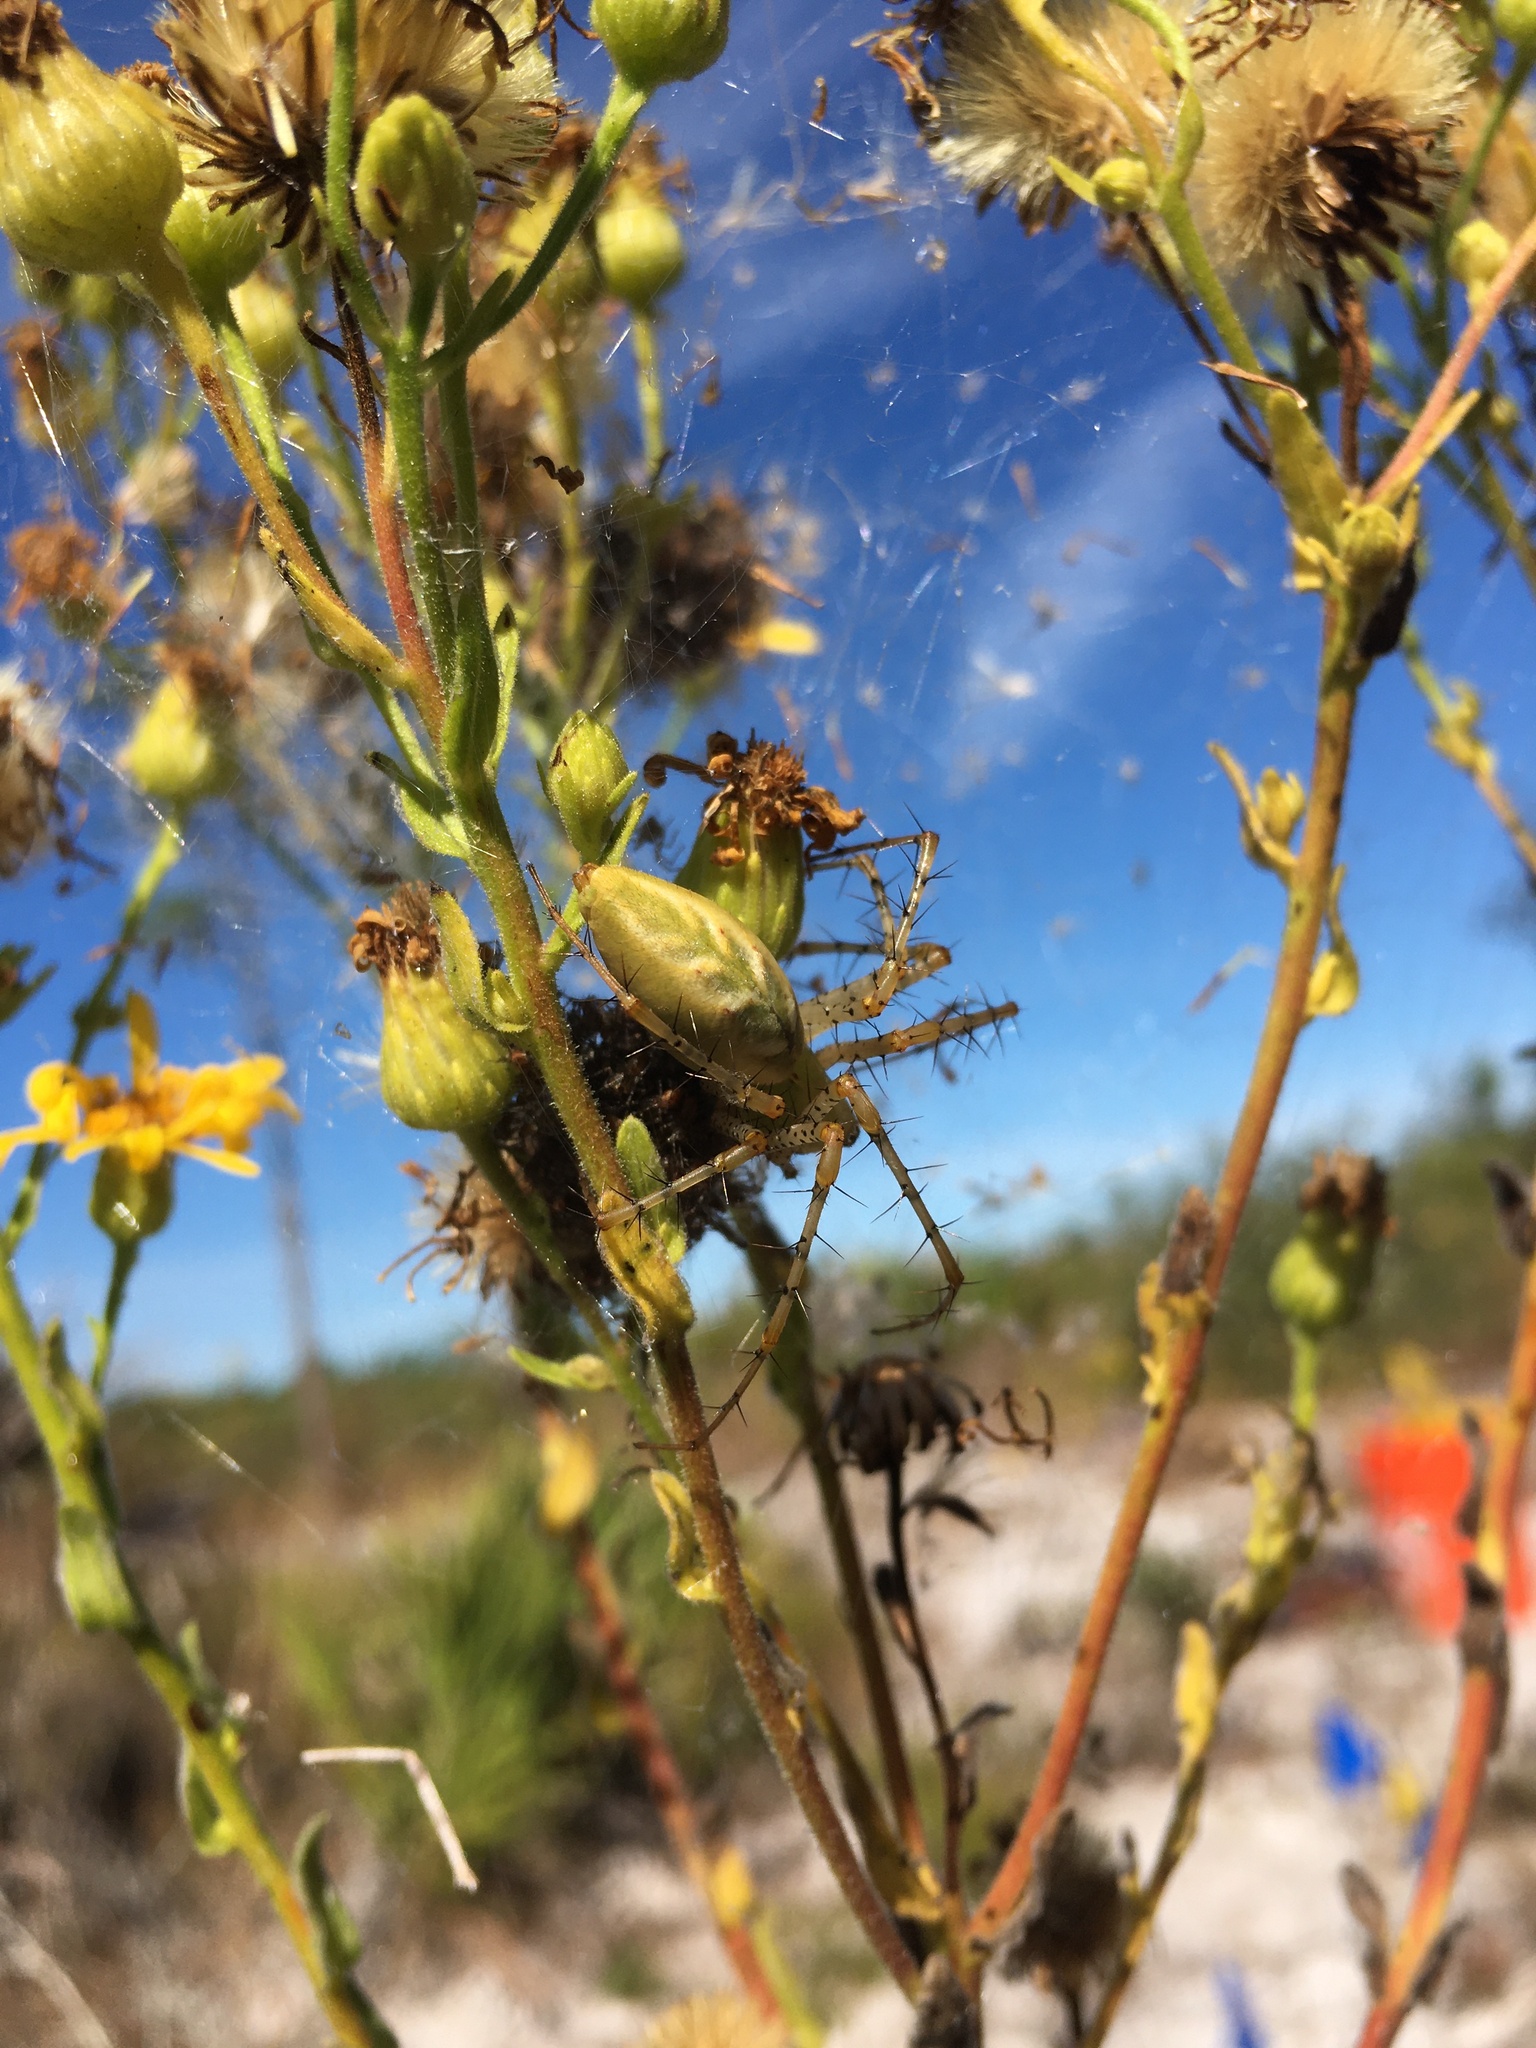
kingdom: Animalia
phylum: Arthropoda
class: Arachnida
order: Araneae
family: Oxyopidae
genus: Peucetia
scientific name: Peucetia viridans
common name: Lynx spiders
